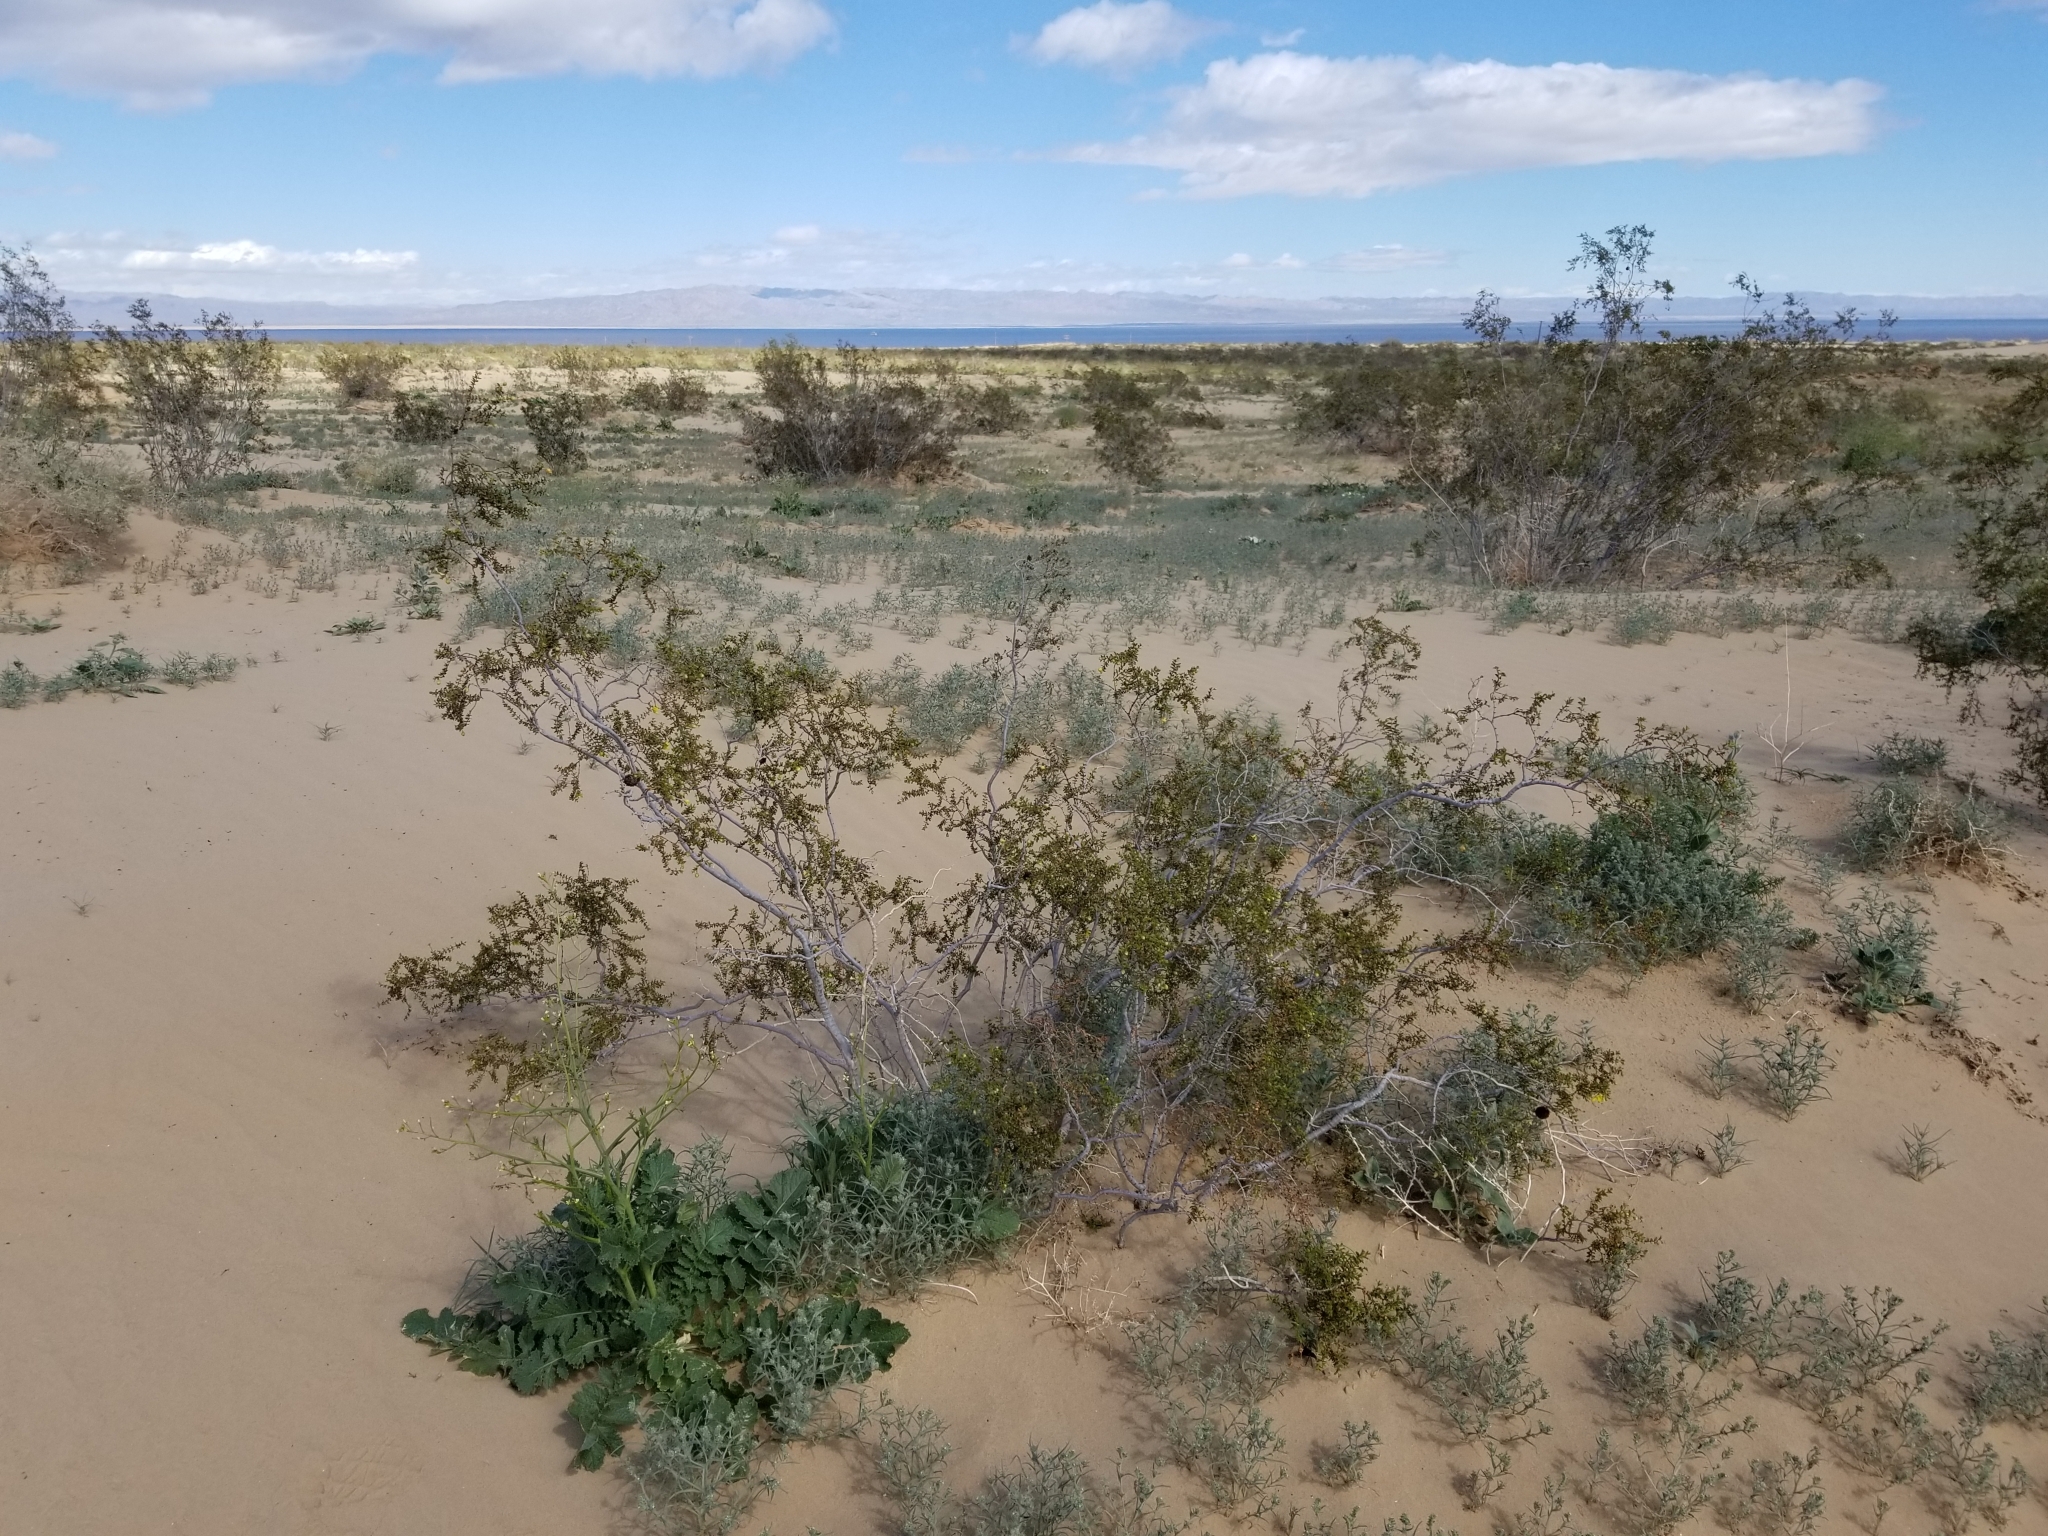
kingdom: Plantae
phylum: Tracheophyta
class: Magnoliopsida
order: Zygophyllales
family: Zygophyllaceae
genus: Larrea
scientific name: Larrea tridentata
